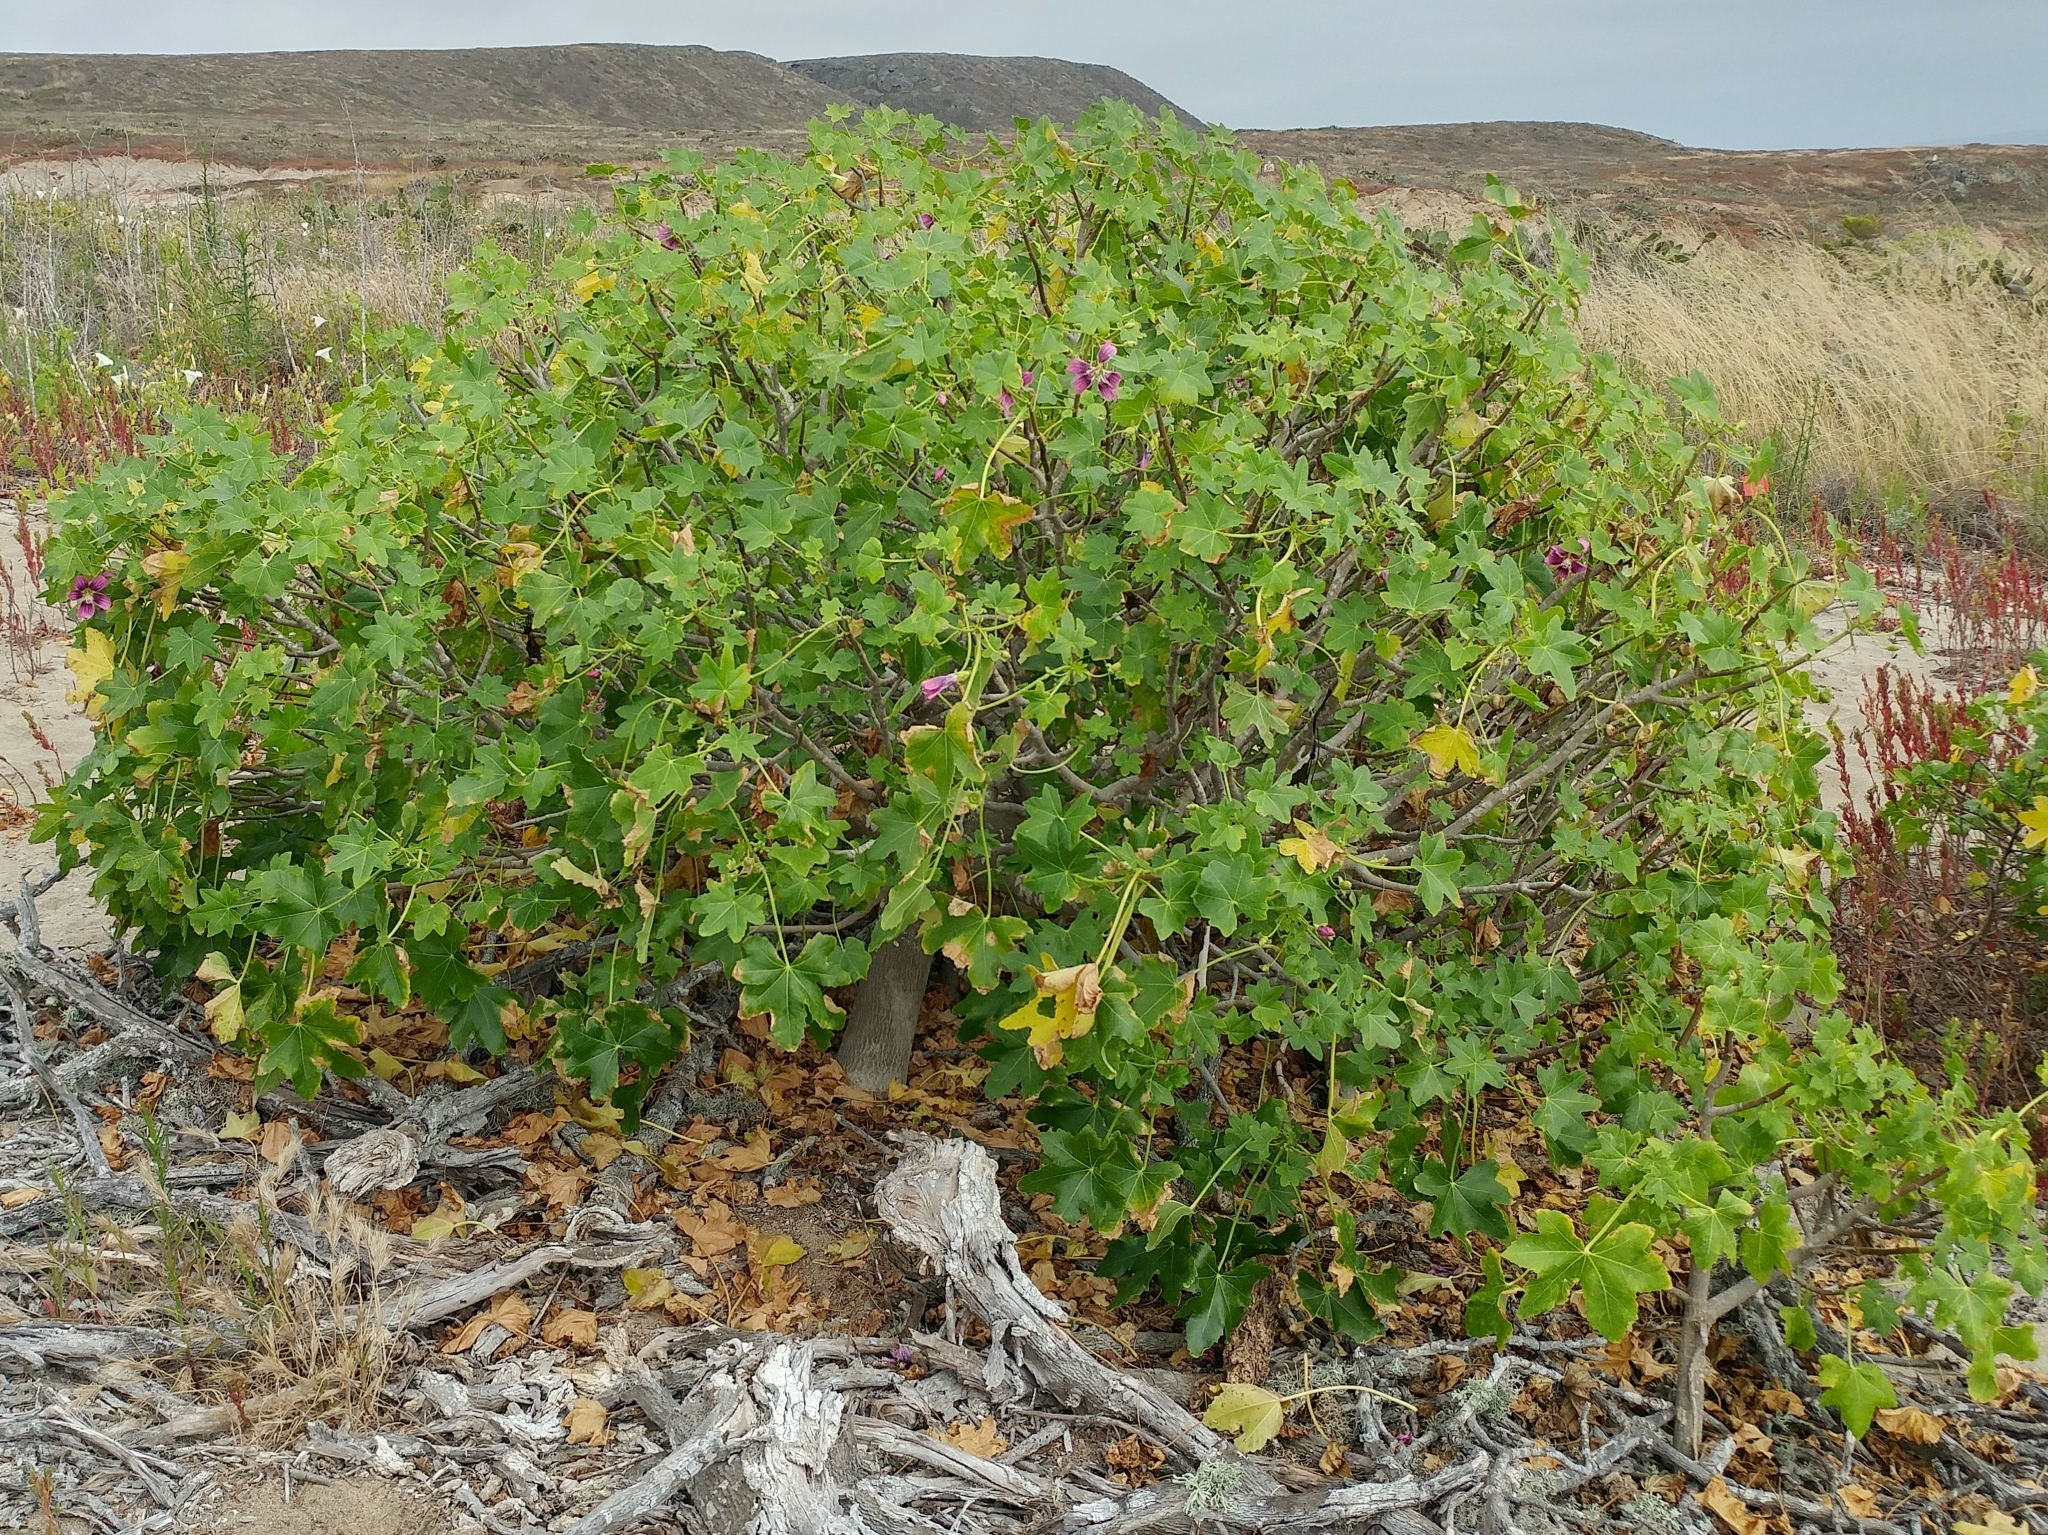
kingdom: Plantae
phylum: Tracheophyta
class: Magnoliopsida
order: Malvales
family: Malvaceae
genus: Malva
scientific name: Malva assurgentiflora
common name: Island mallow
